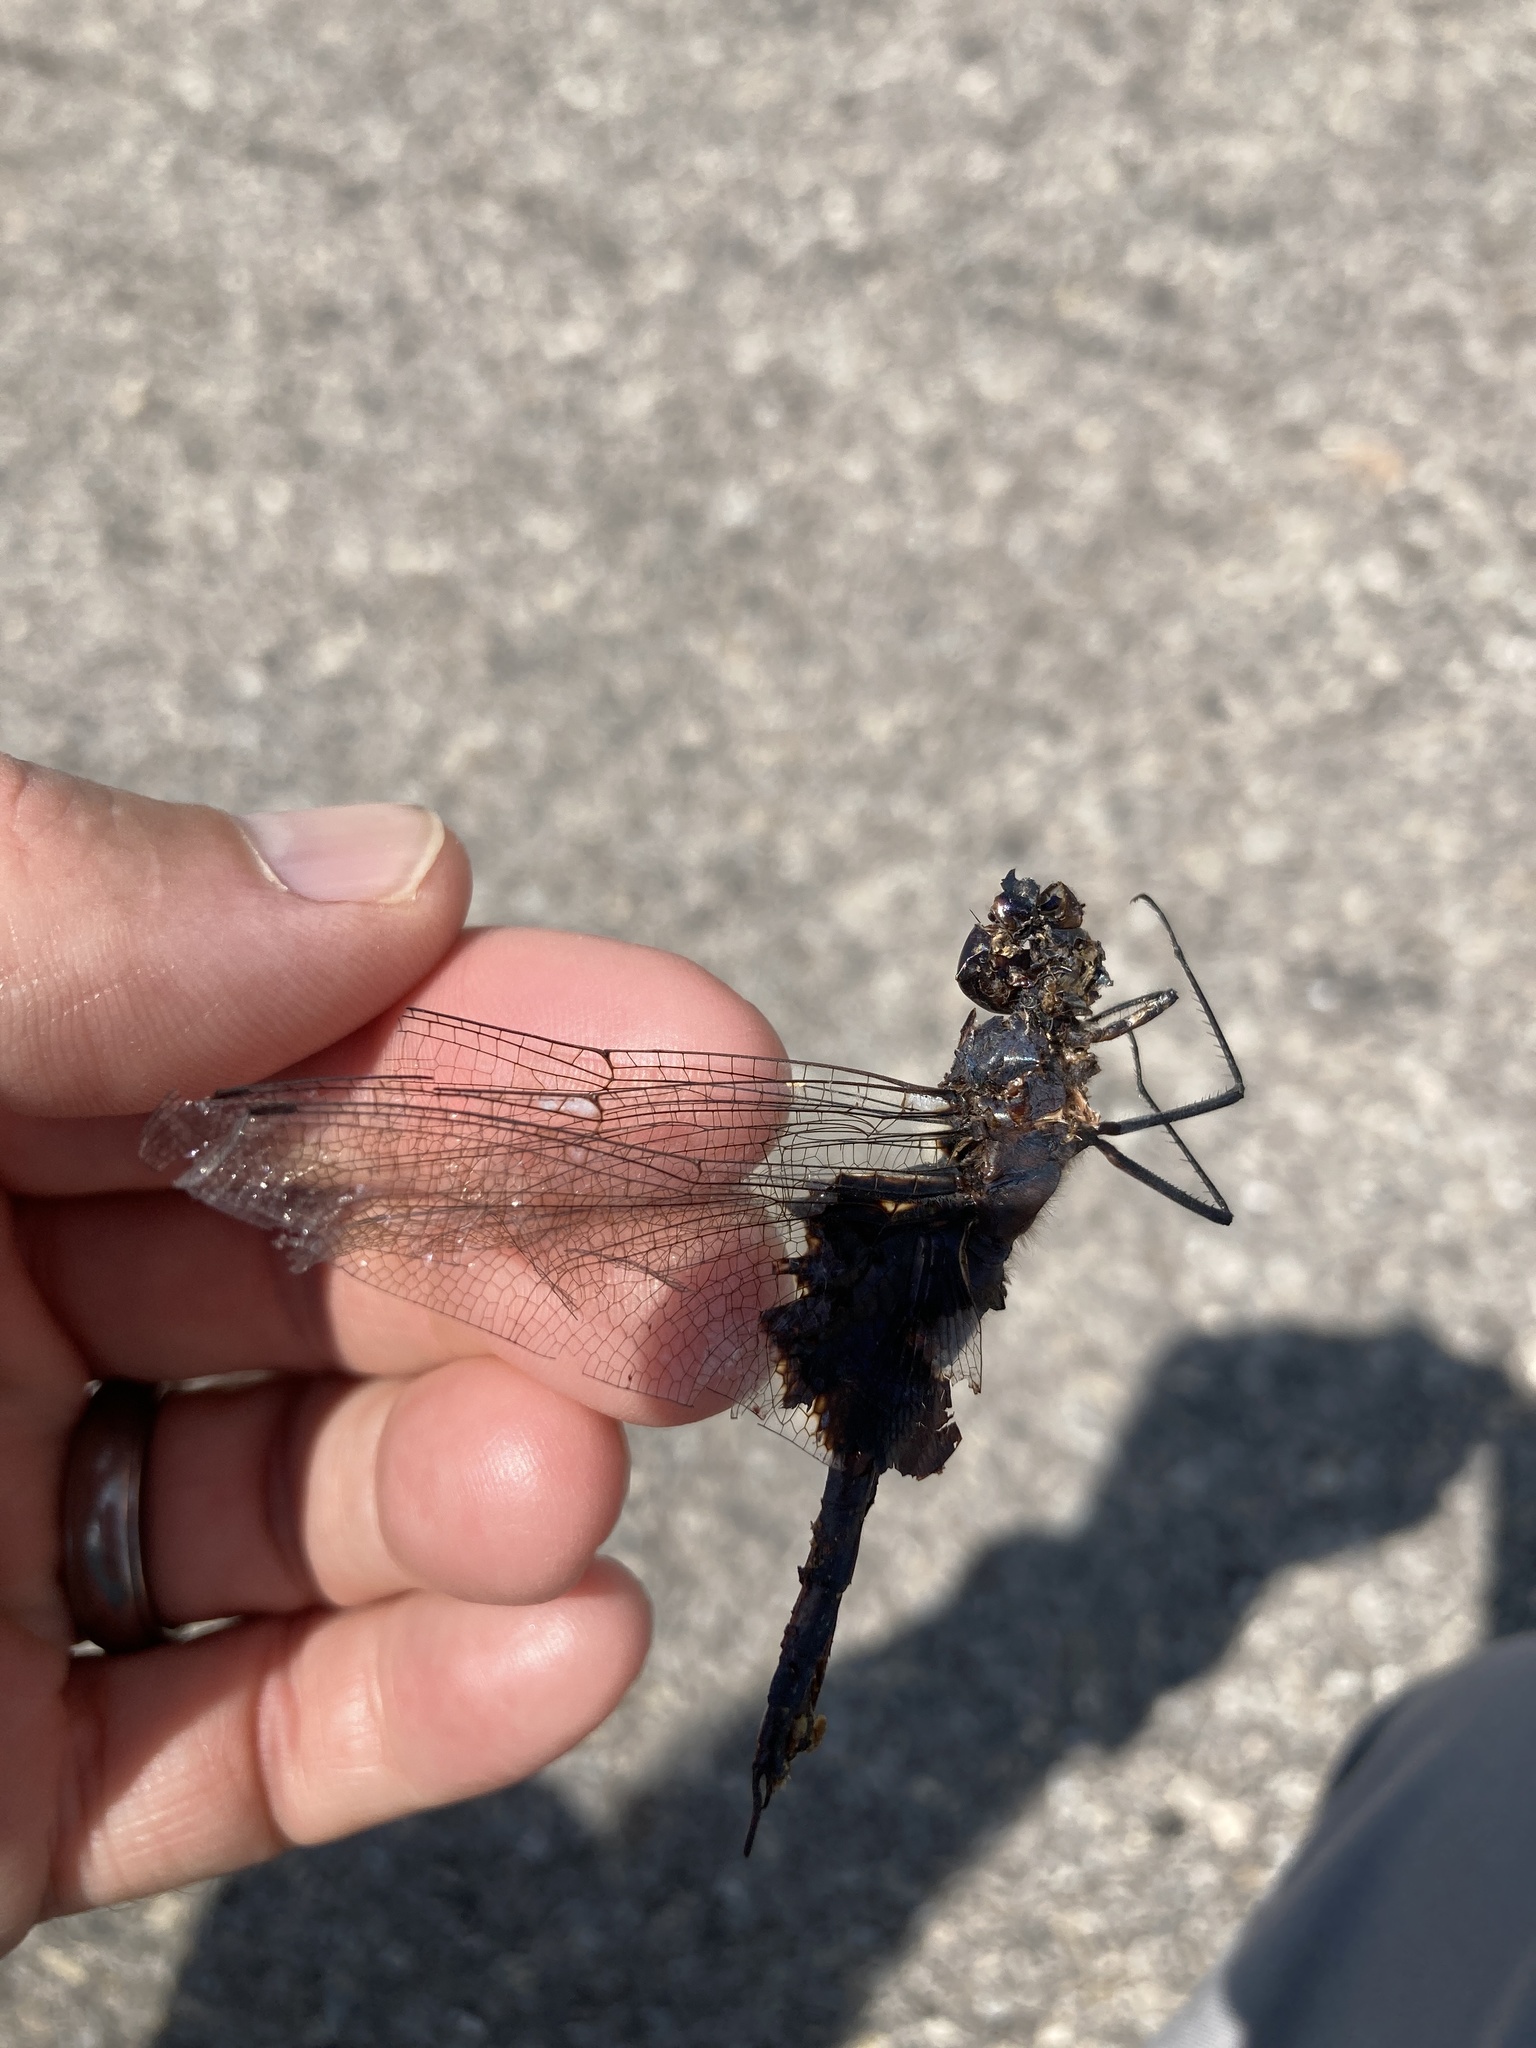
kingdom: Animalia
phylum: Arthropoda
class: Insecta
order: Odonata
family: Libellulidae
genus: Tramea
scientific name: Tramea lacerata
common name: Black saddlebags
